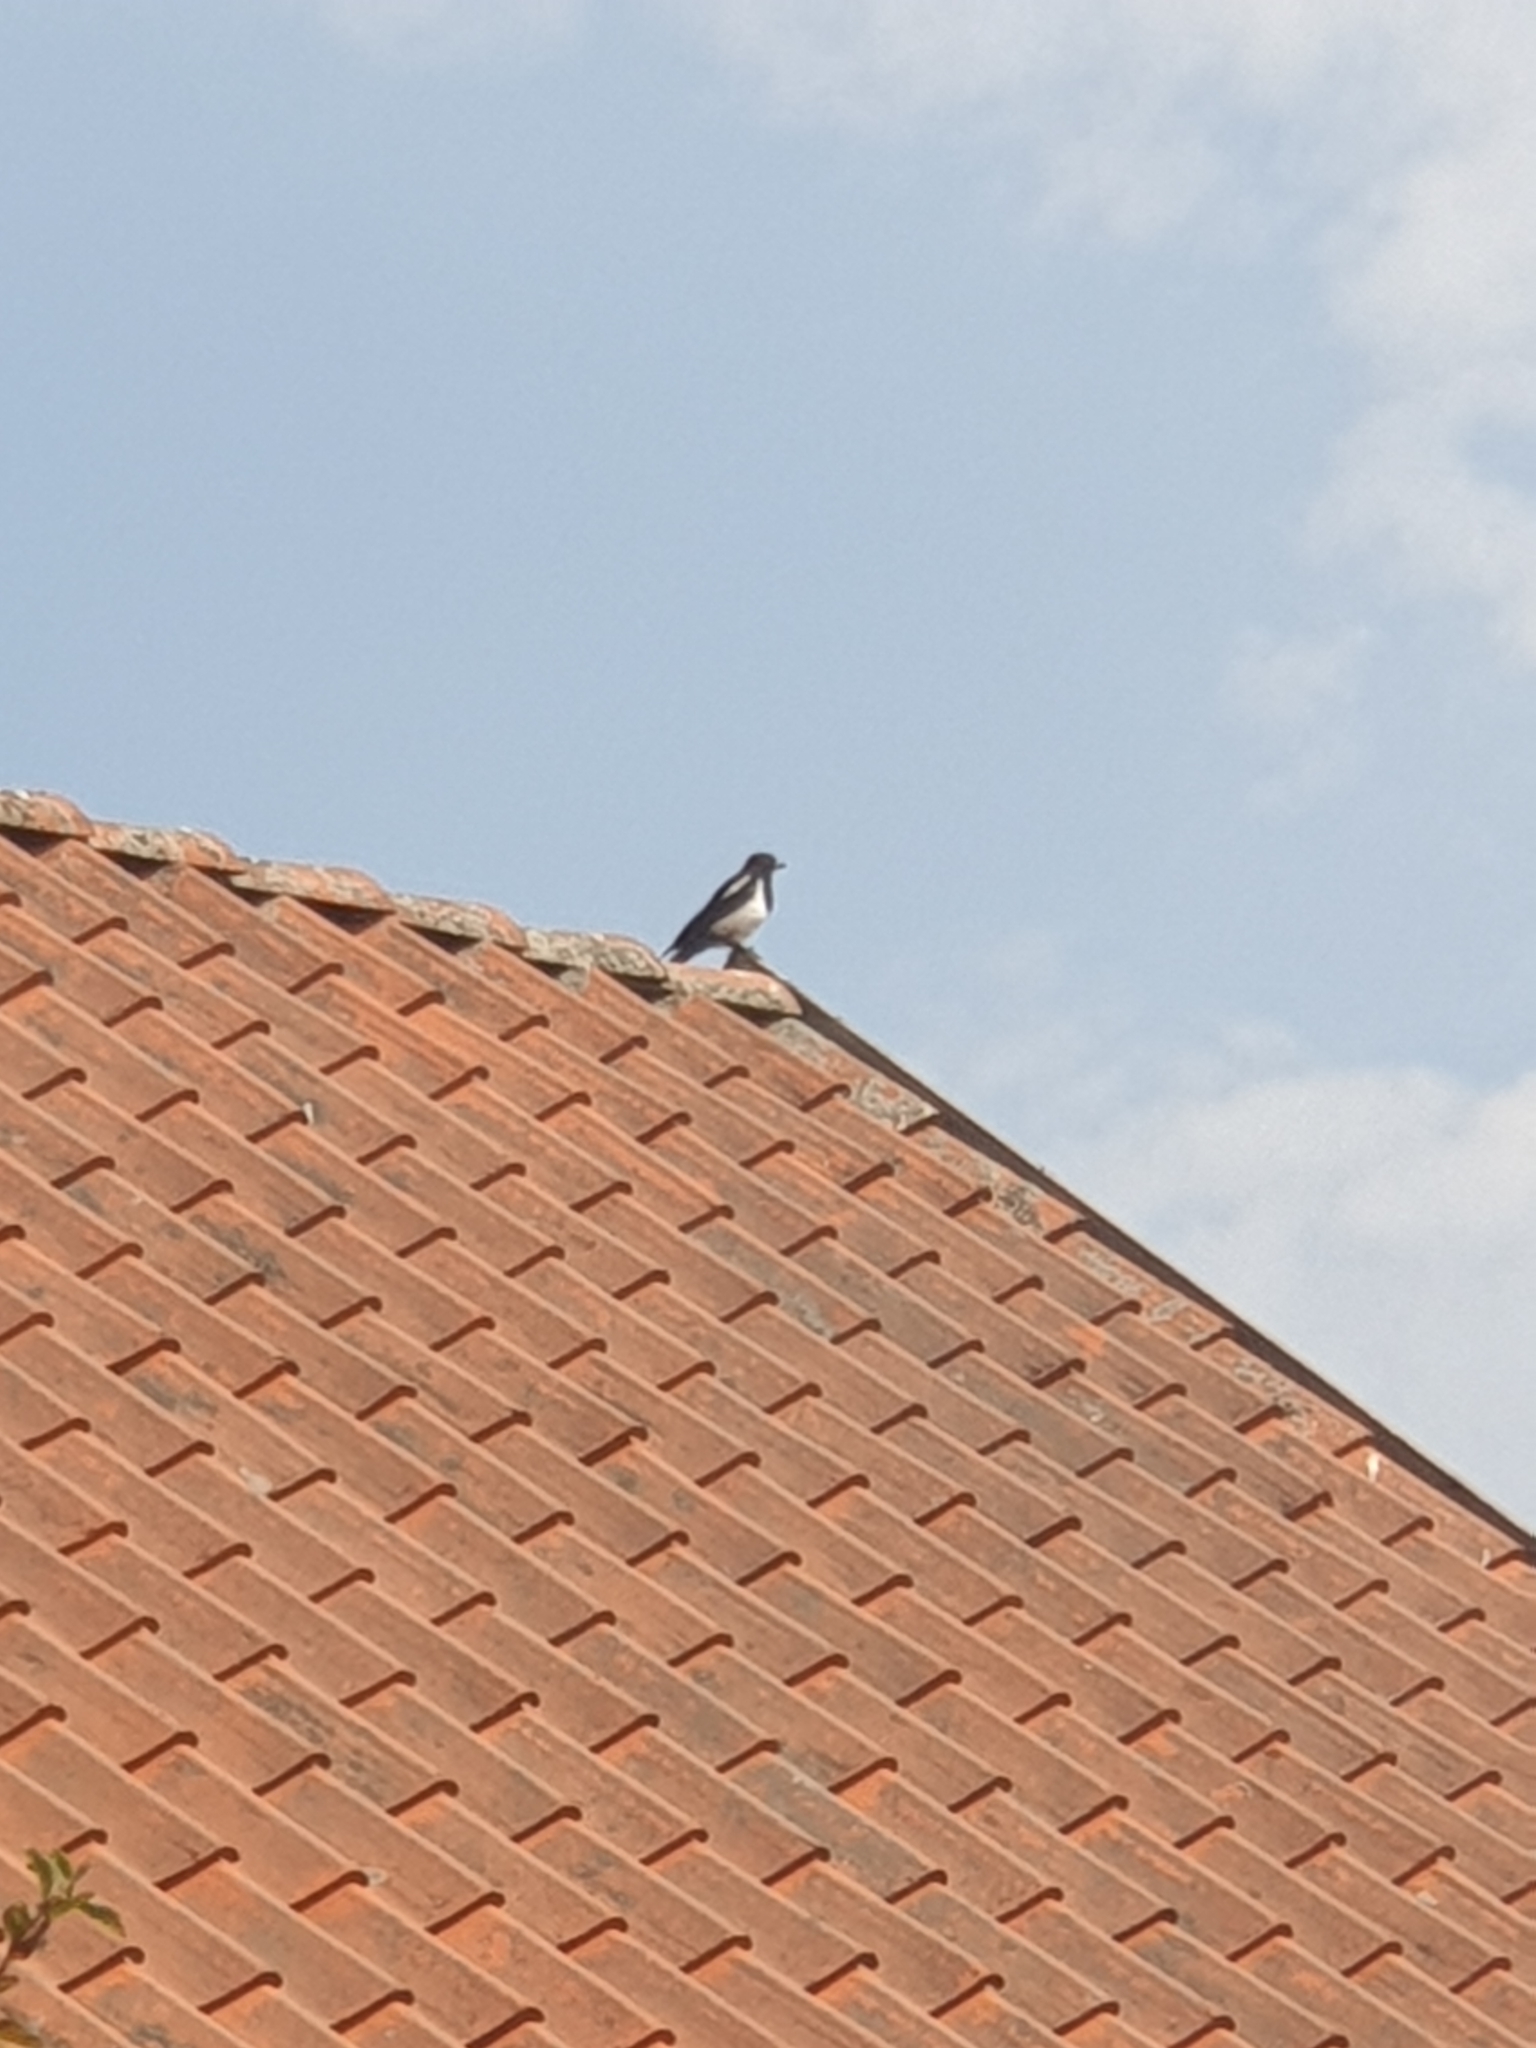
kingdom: Animalia
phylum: Chordata
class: Aves
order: Passeriformes
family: Corvidae
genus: Pica
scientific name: Pica pica
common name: Eurasian magpie
